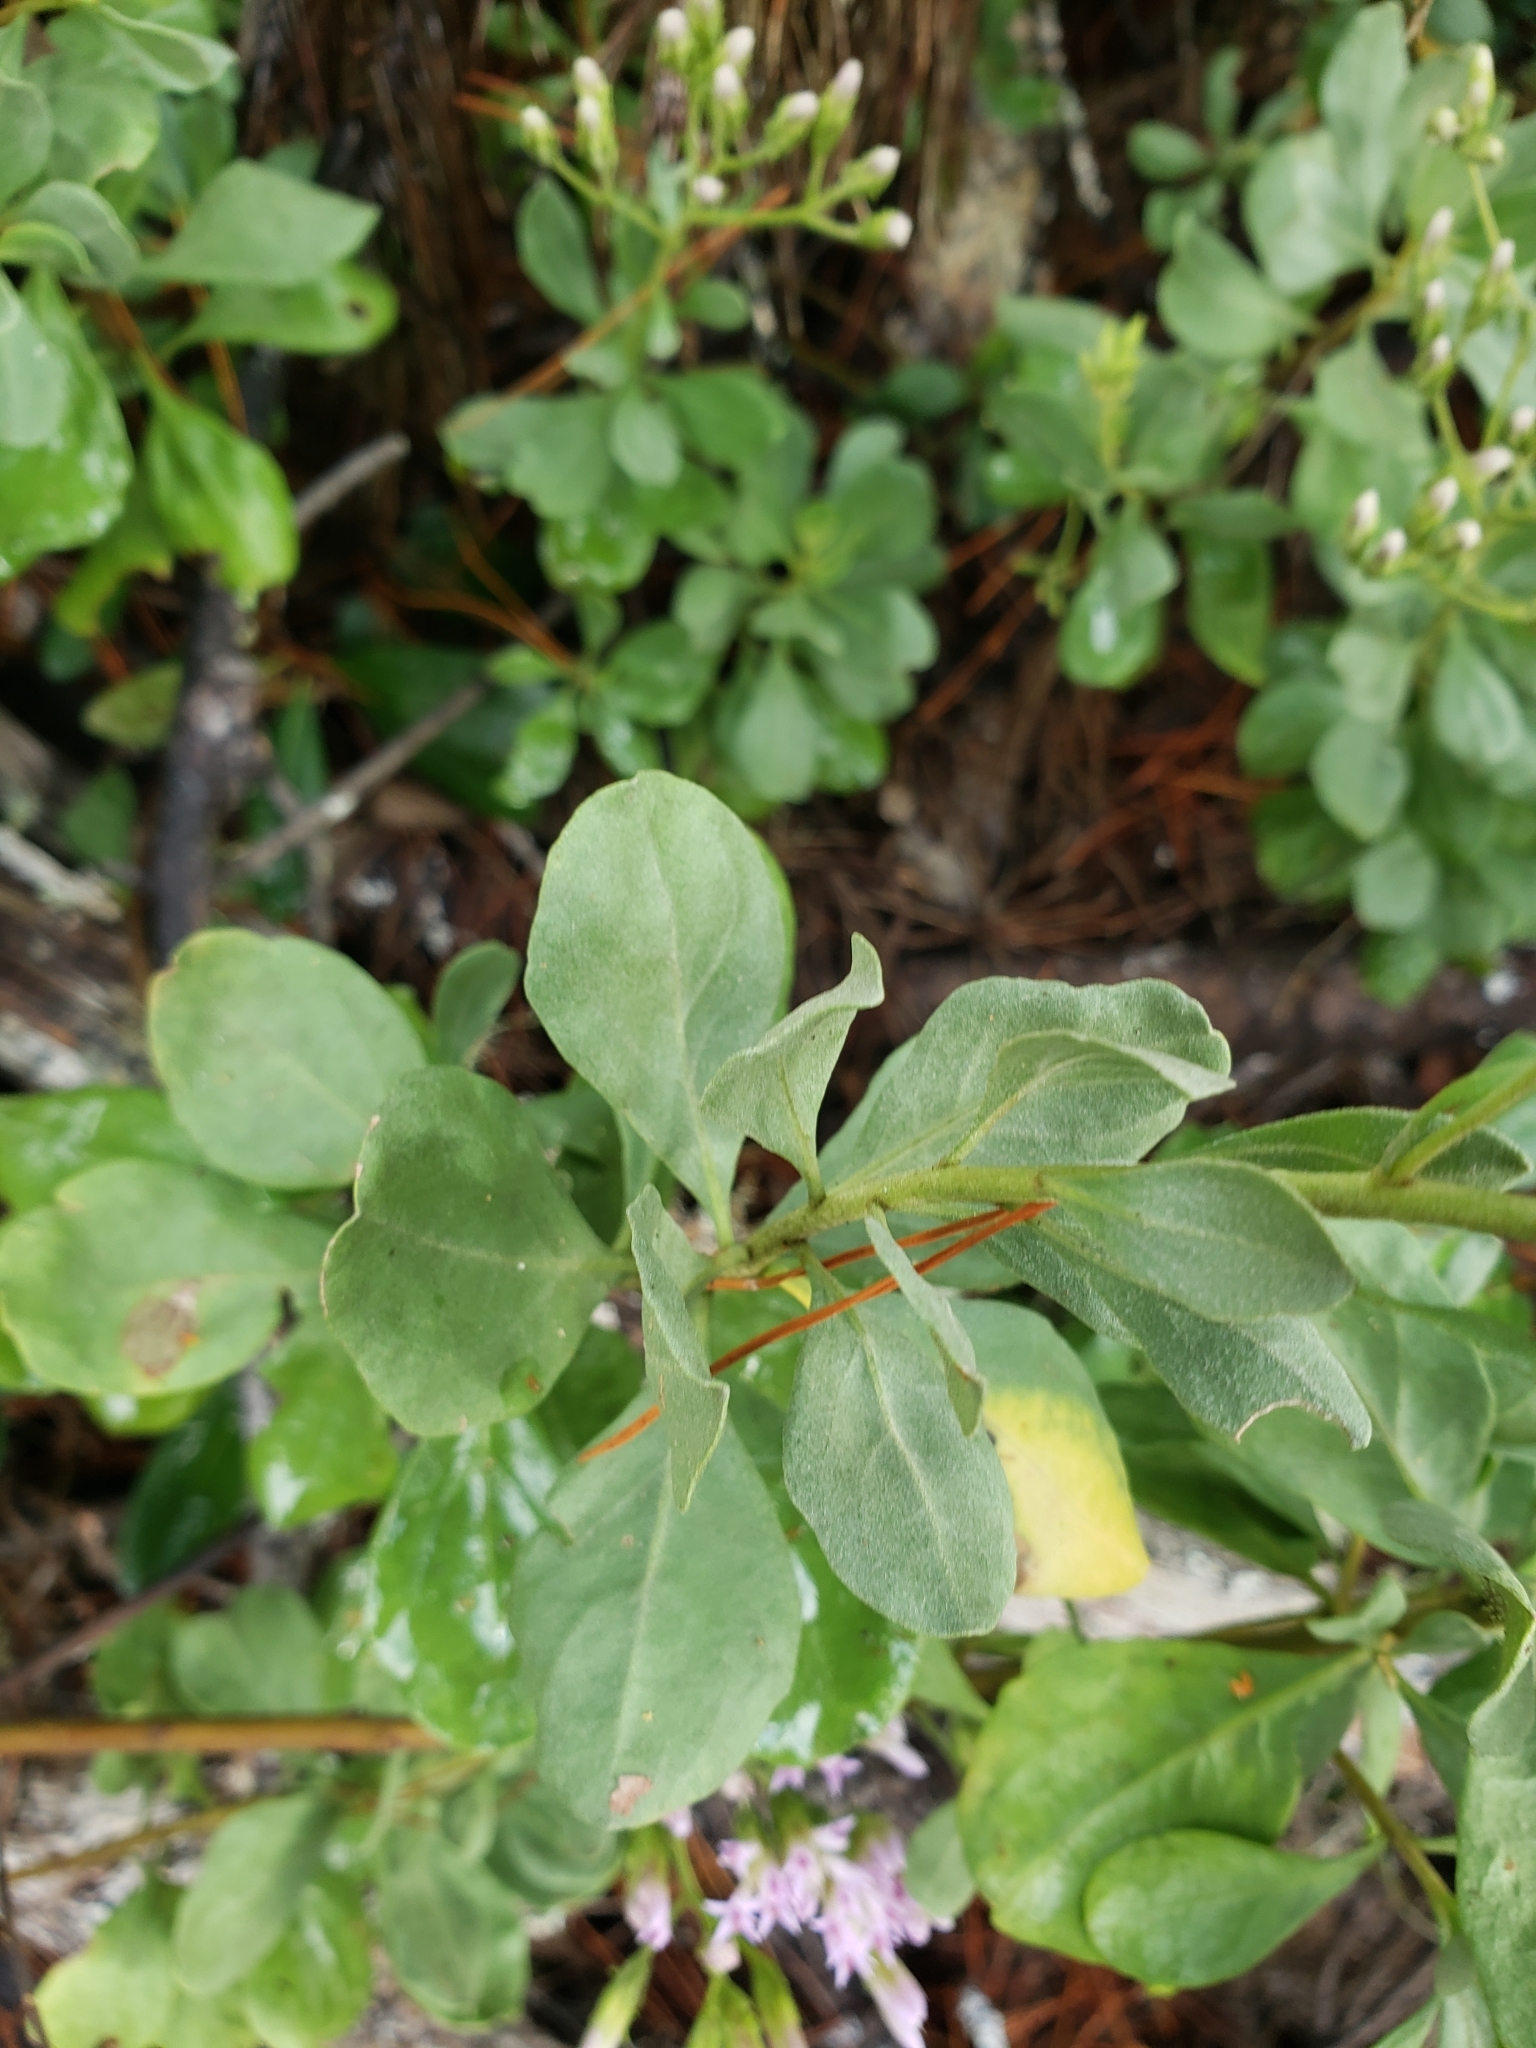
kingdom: Plantae
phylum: Tracheophyta
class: Magnoliopsida
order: Asterales
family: Asteraceae
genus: Garberia
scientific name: Garberia heterophylla
